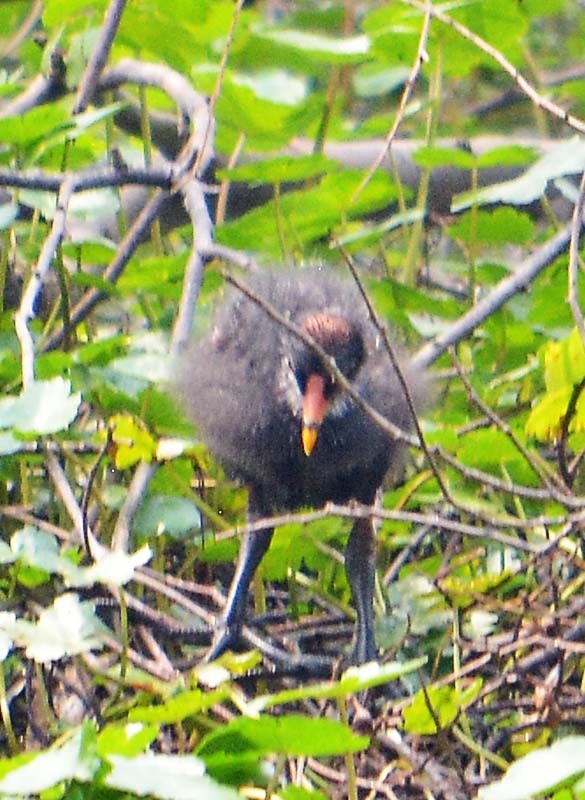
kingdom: Animalia
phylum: Chordata
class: Aves
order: Gruiformes
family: Rallidae
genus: Gallinula
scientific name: Gallinula chloropus
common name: Common moorhen
